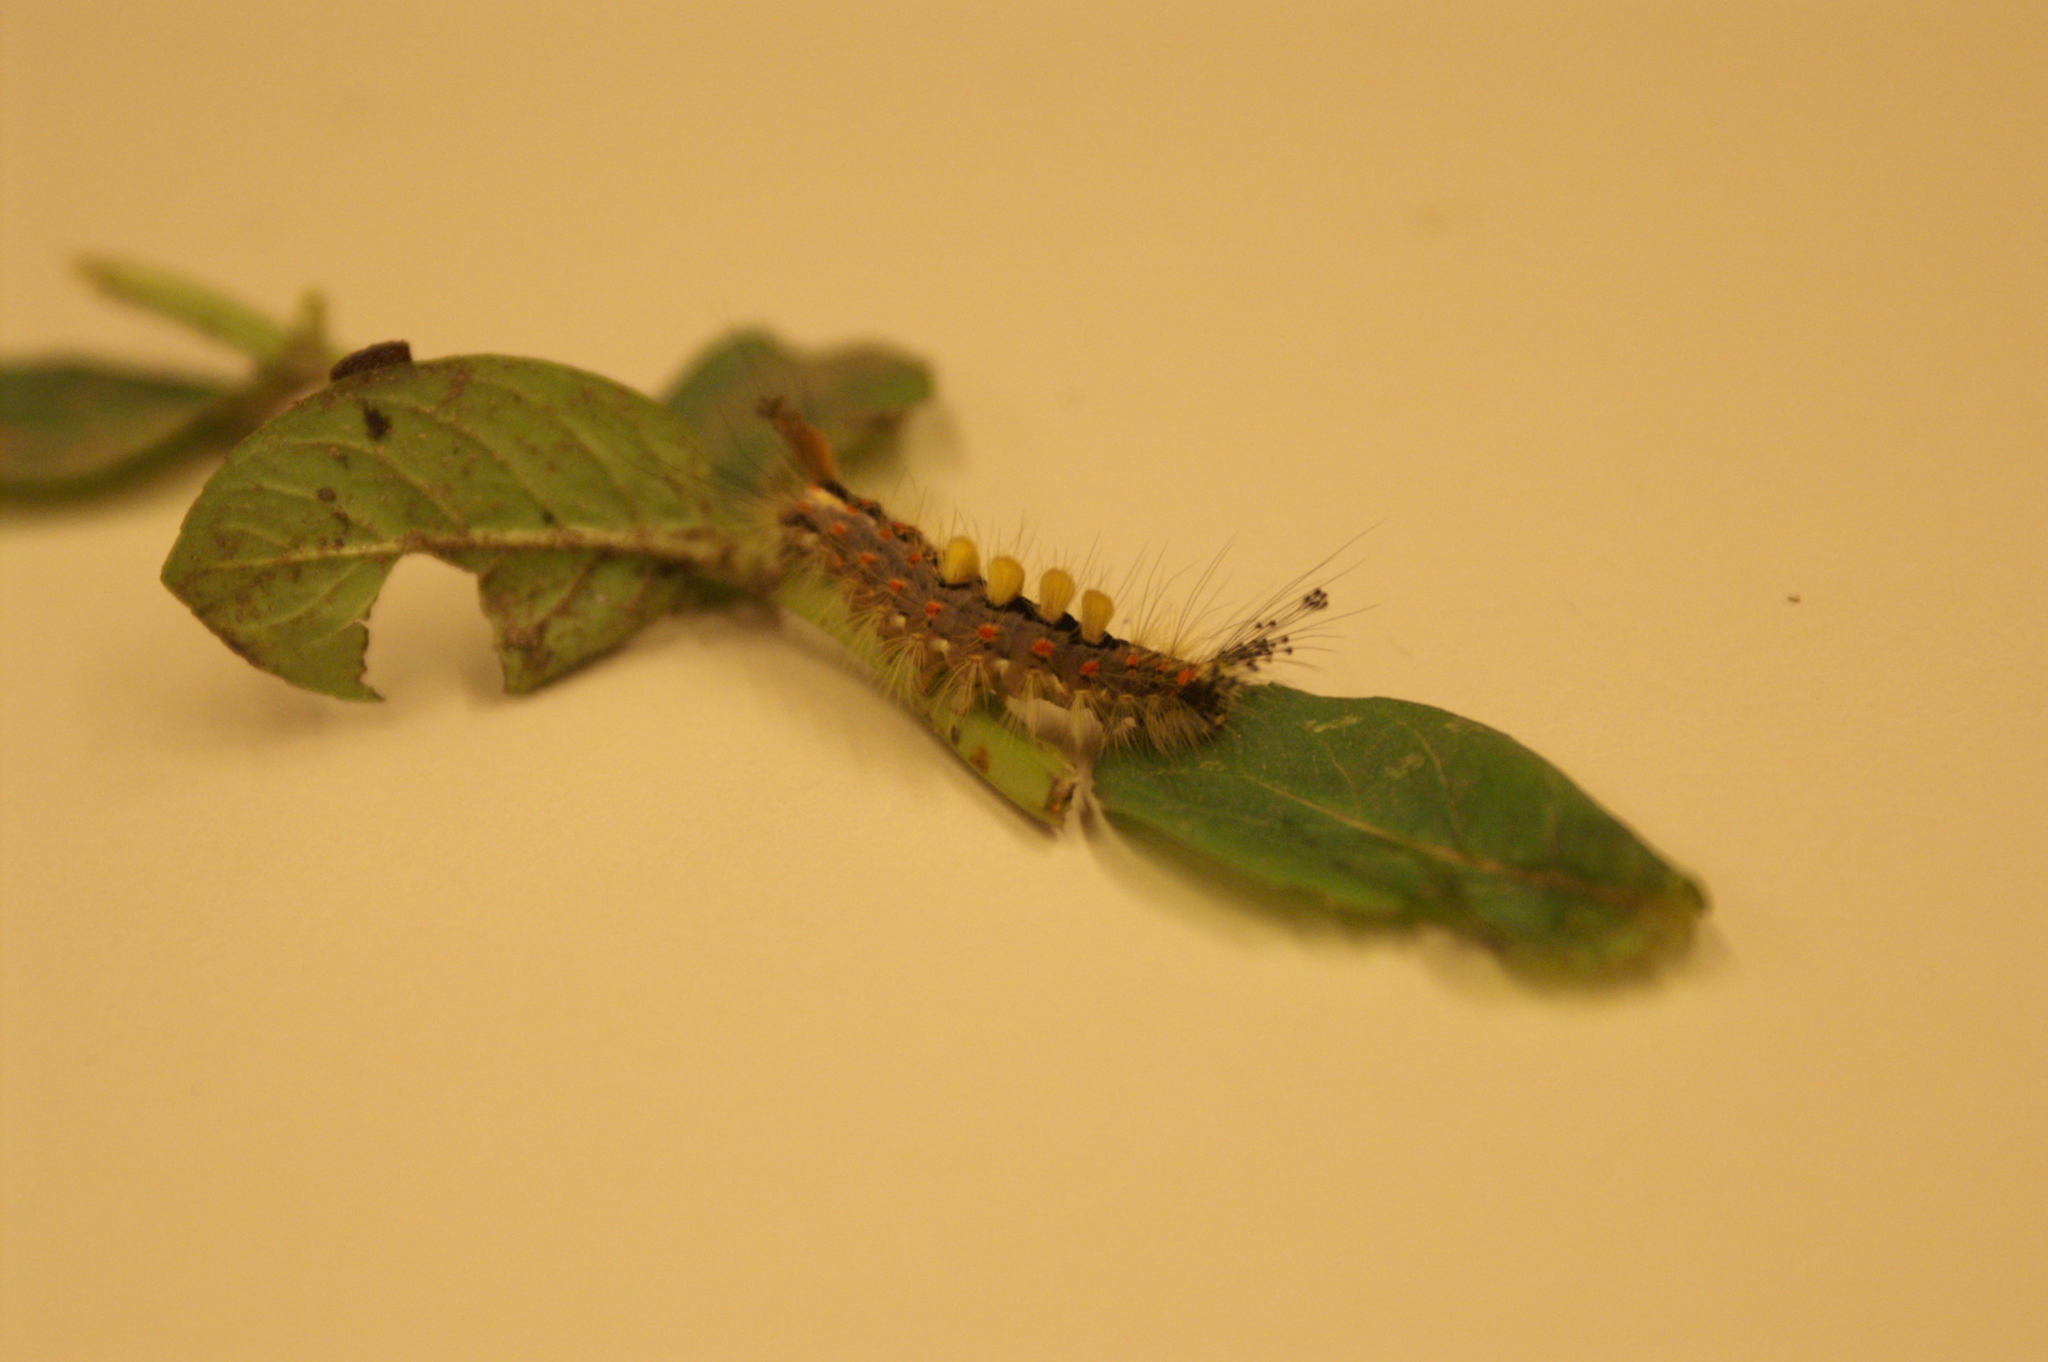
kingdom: Animalia
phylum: Arthropoda
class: Insecta
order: Lepidoptera
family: Erebidae
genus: Orgyia
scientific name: Orgyia antiqua
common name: Vapourer
